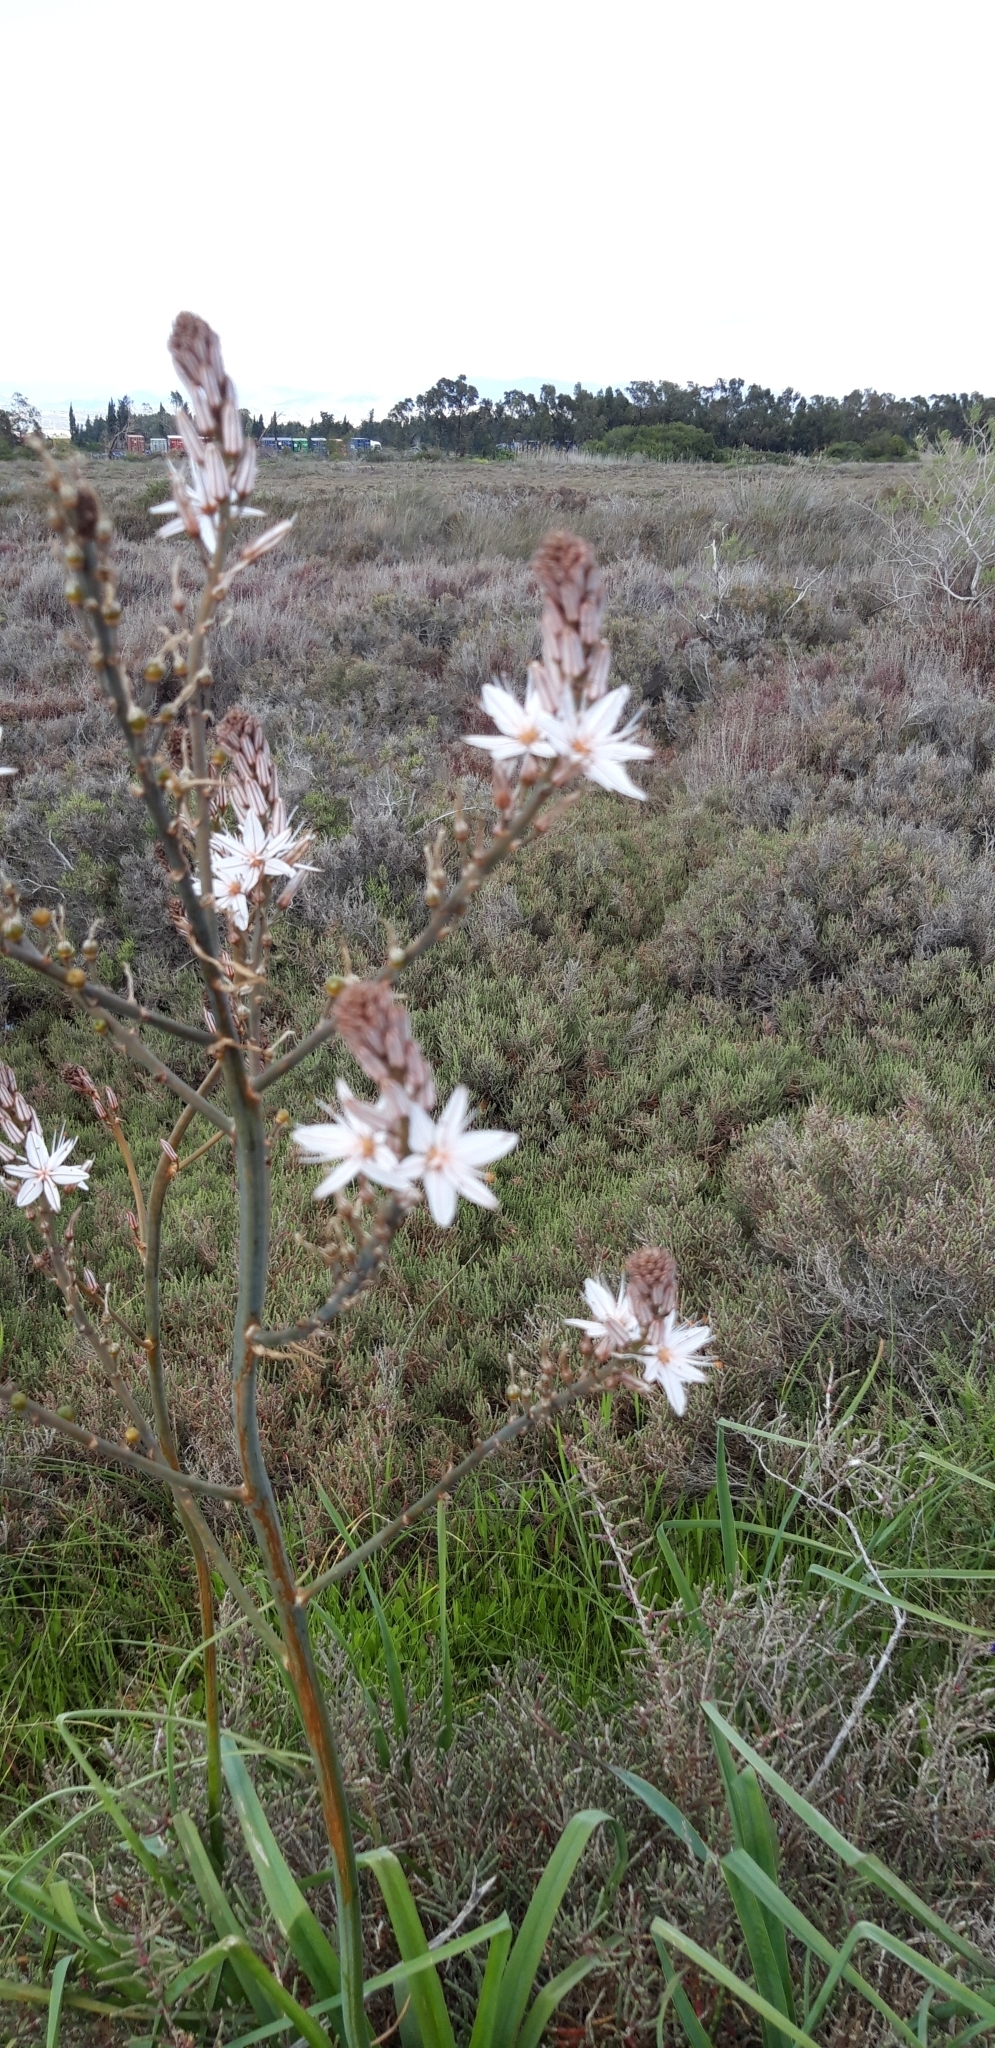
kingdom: Plantae
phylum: Tracheophyta
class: Liliopsida
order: Asparagales
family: Asphodelaceae
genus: Asphodelus
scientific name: Asphodelus ramosus
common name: Silverrod
